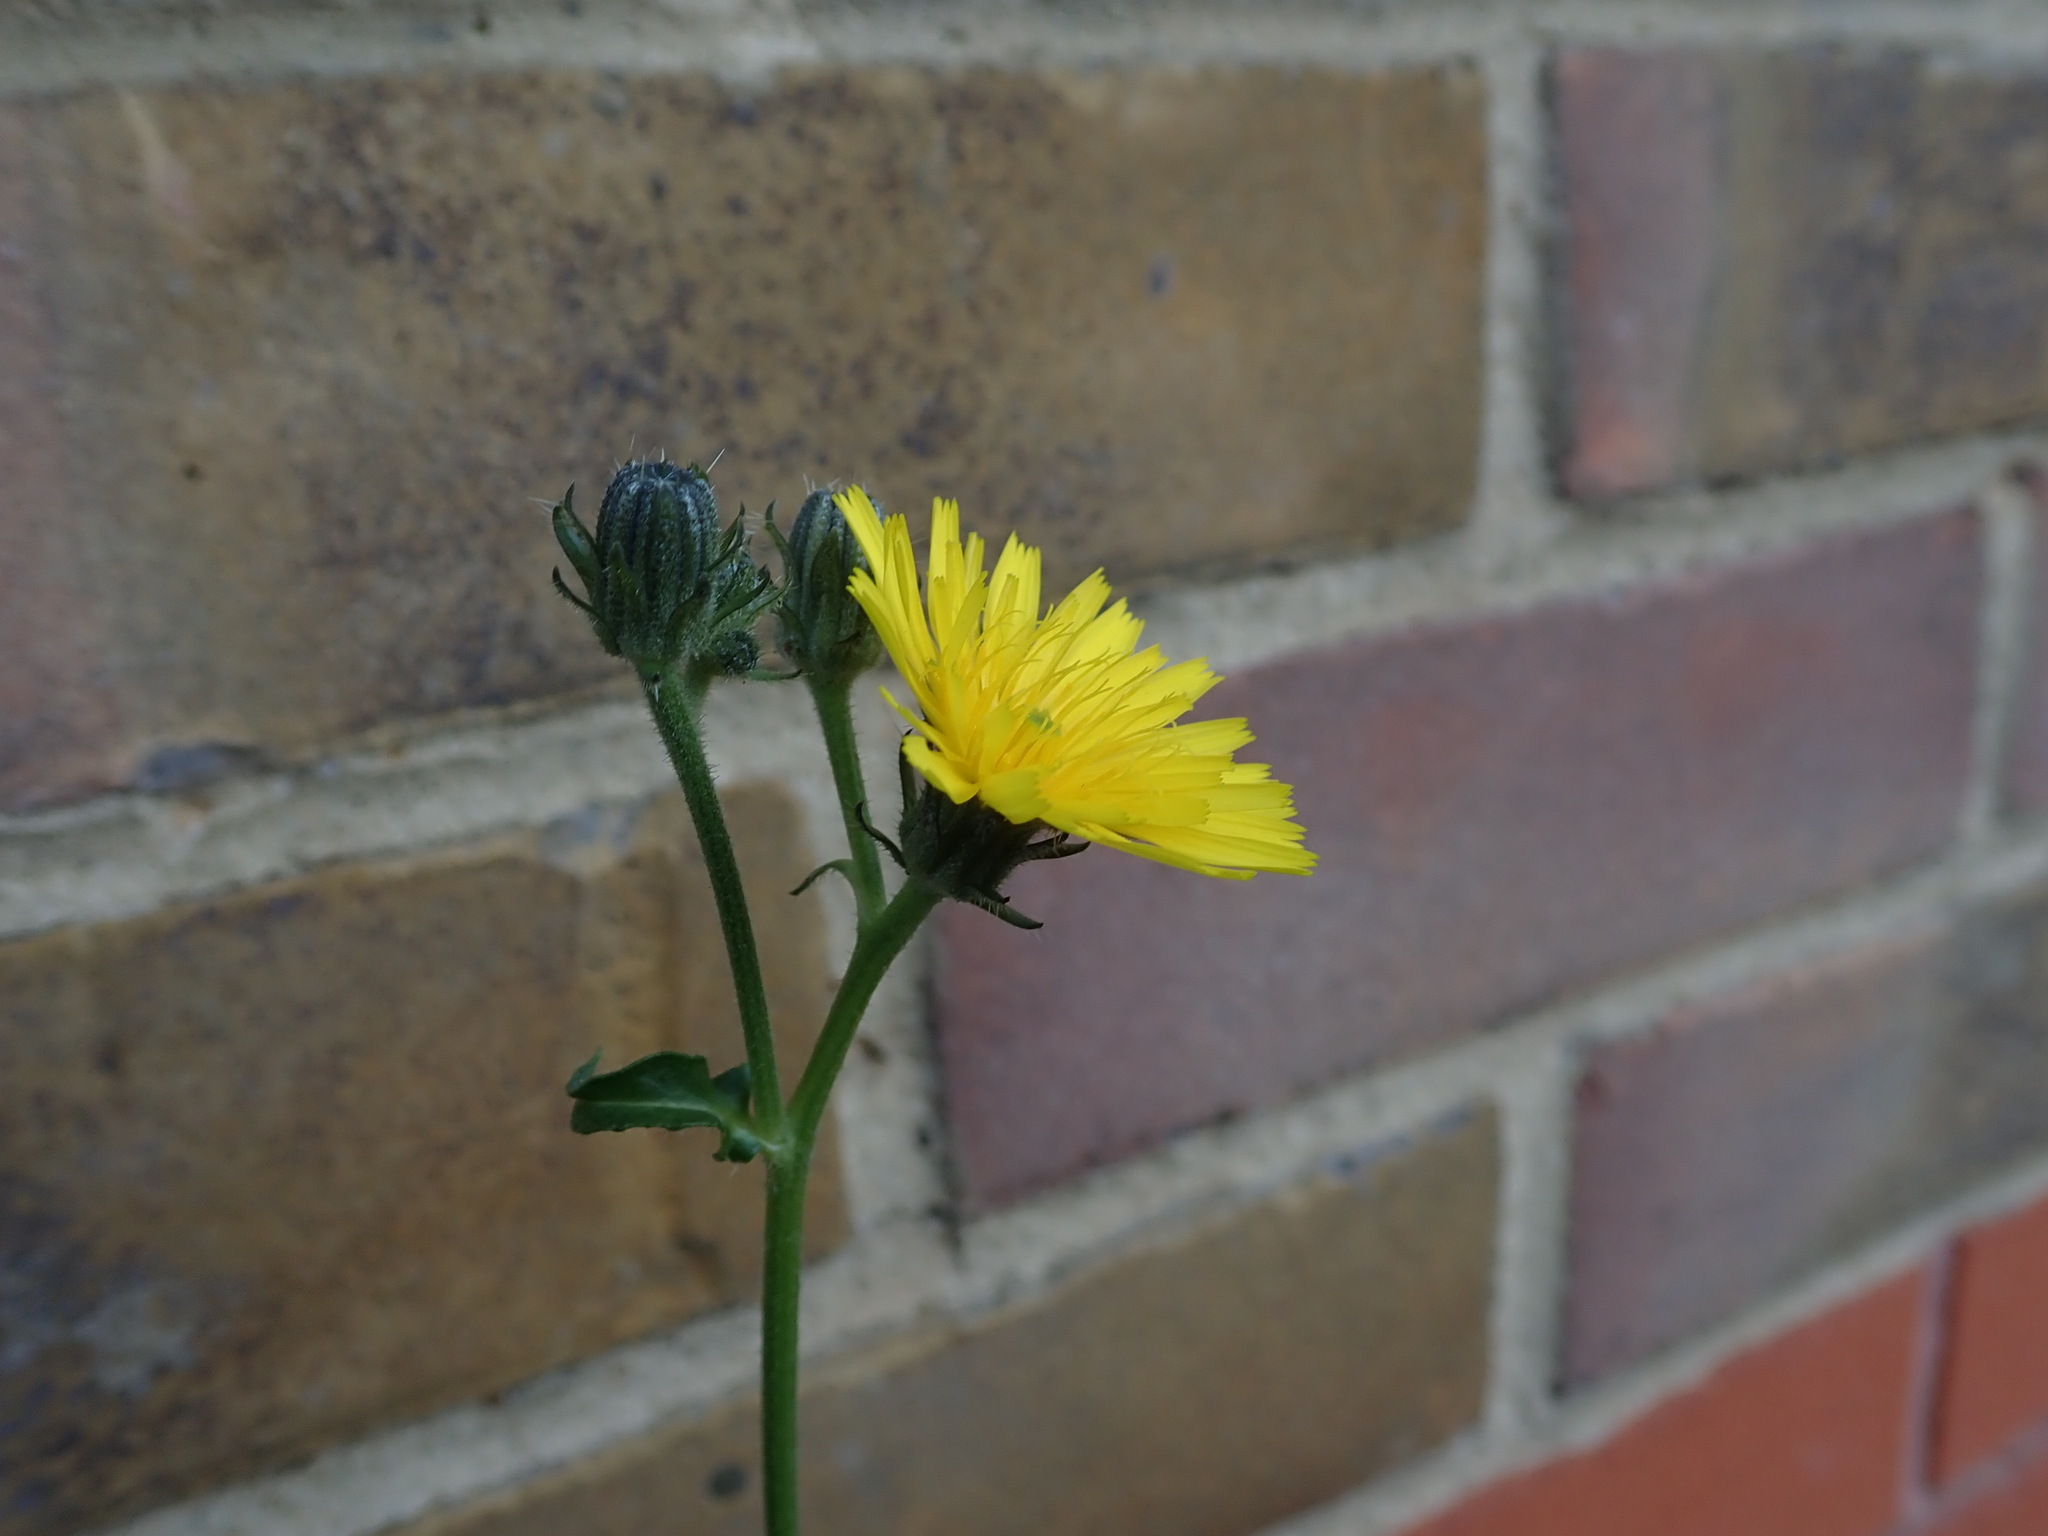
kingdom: Plantae
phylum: Tracheophyta
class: Magnoliopsida
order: Asterales
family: Asteraceae
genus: Picris
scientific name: Picris hieracioides
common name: Hawkweed oxtongue
